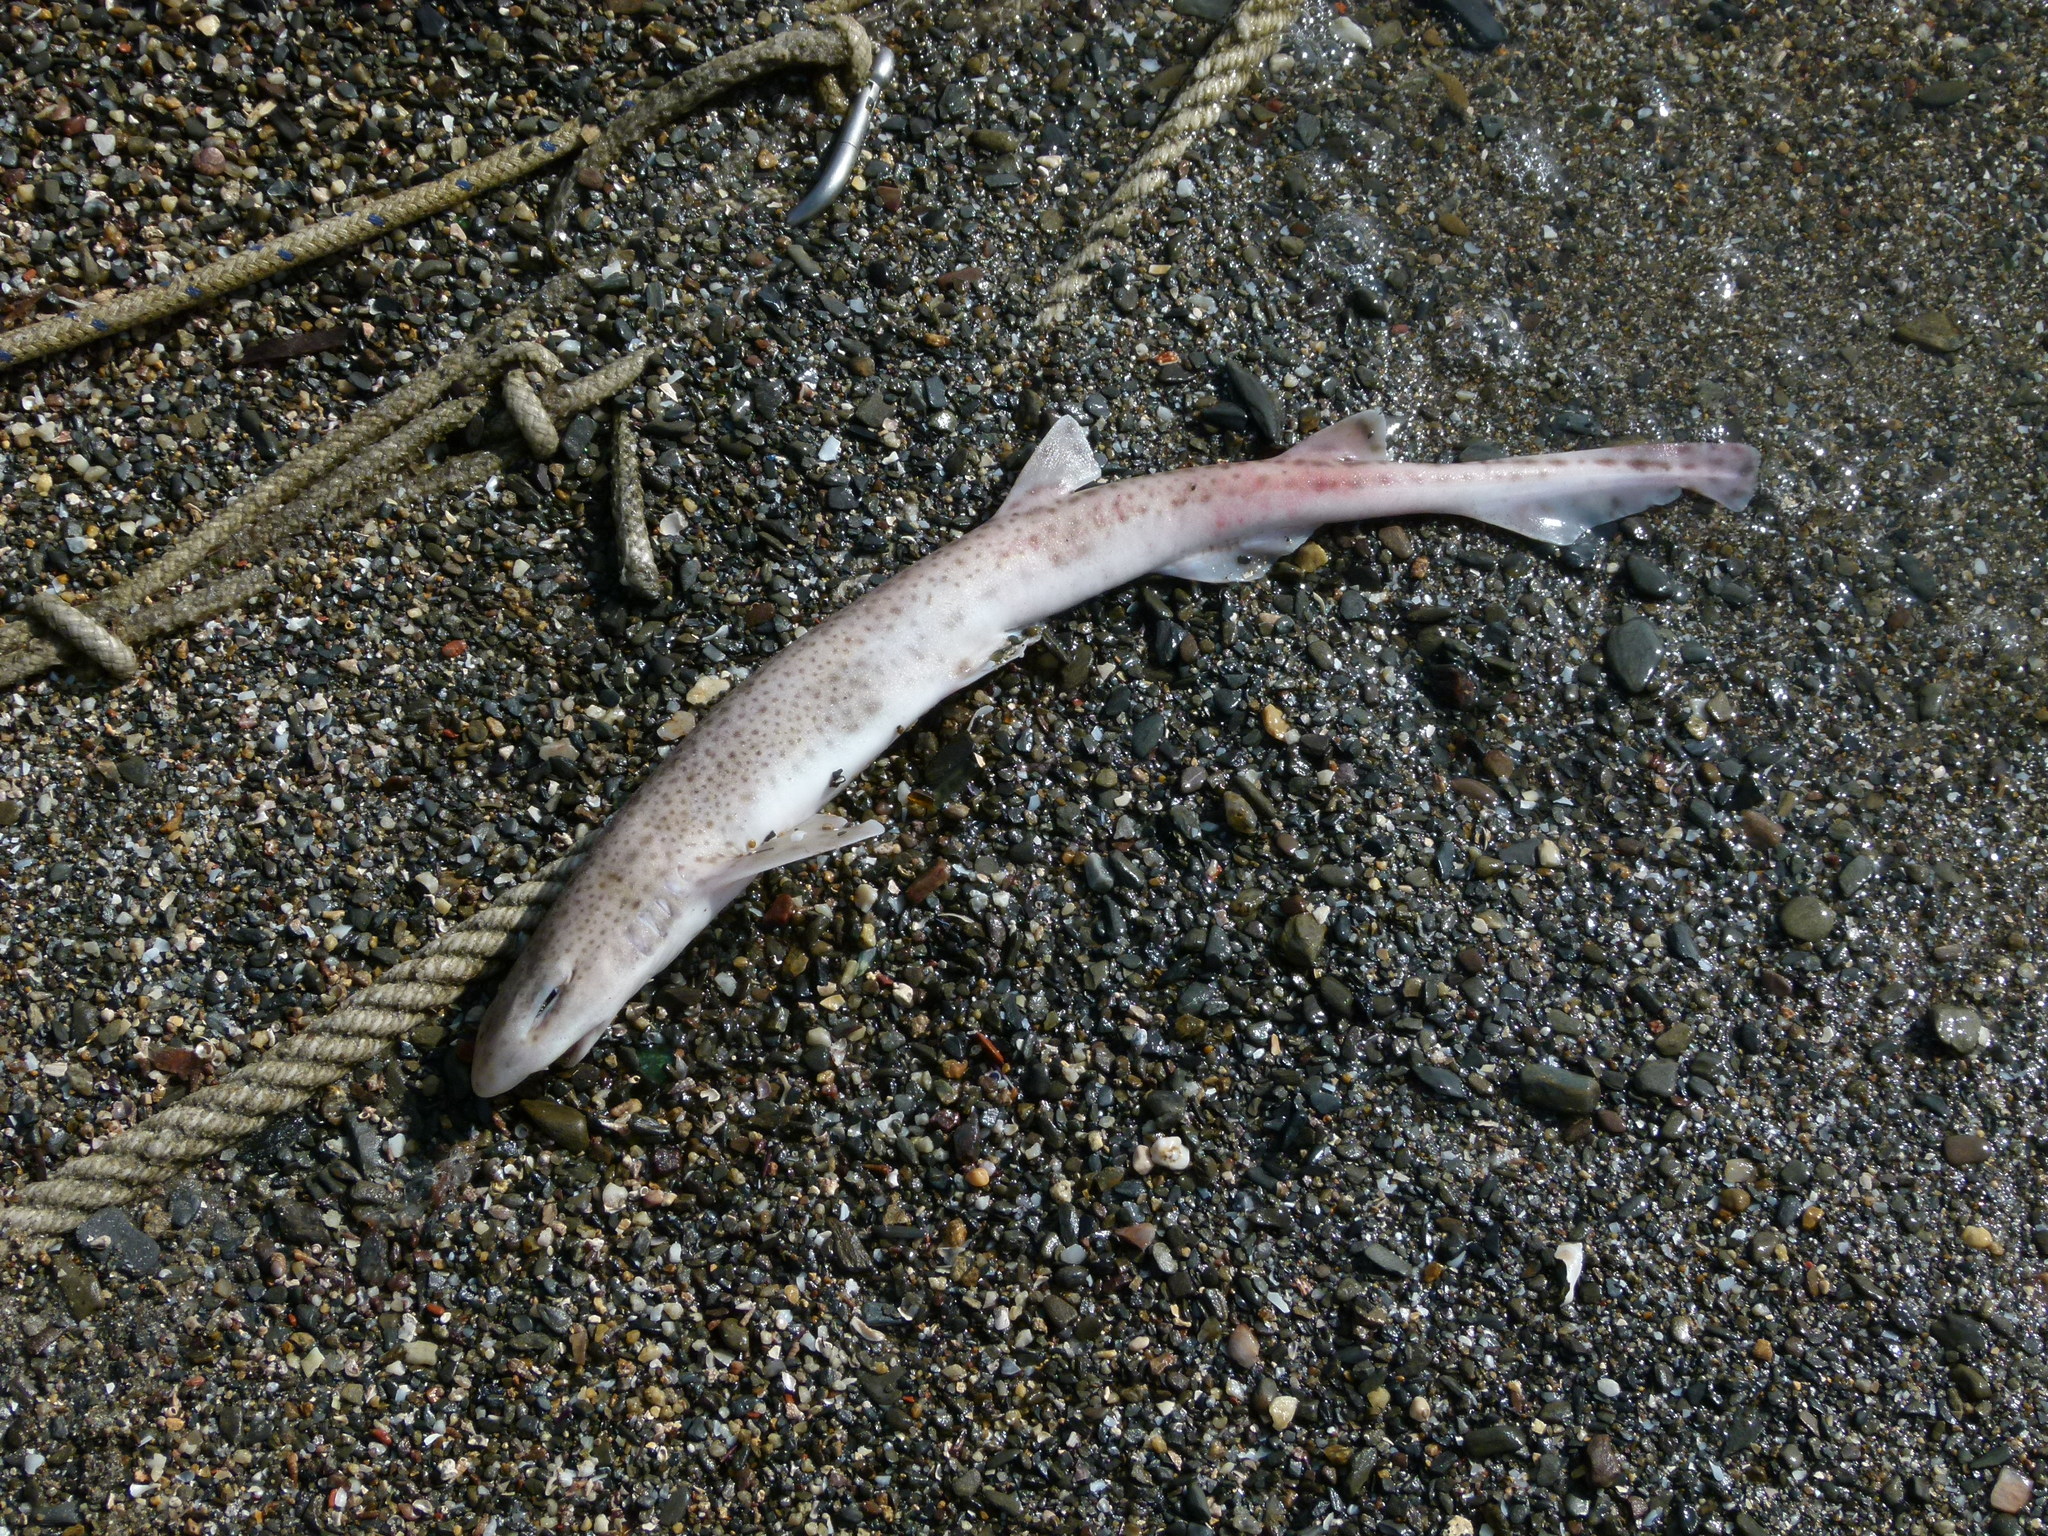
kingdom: Animalia
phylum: Chordata
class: Elasmobranchii
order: Carcharhiniformes
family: Scyliorhinidae
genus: Scyliorhinus
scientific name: Scyliorhinus canicula
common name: Lesser spotted dogfish
